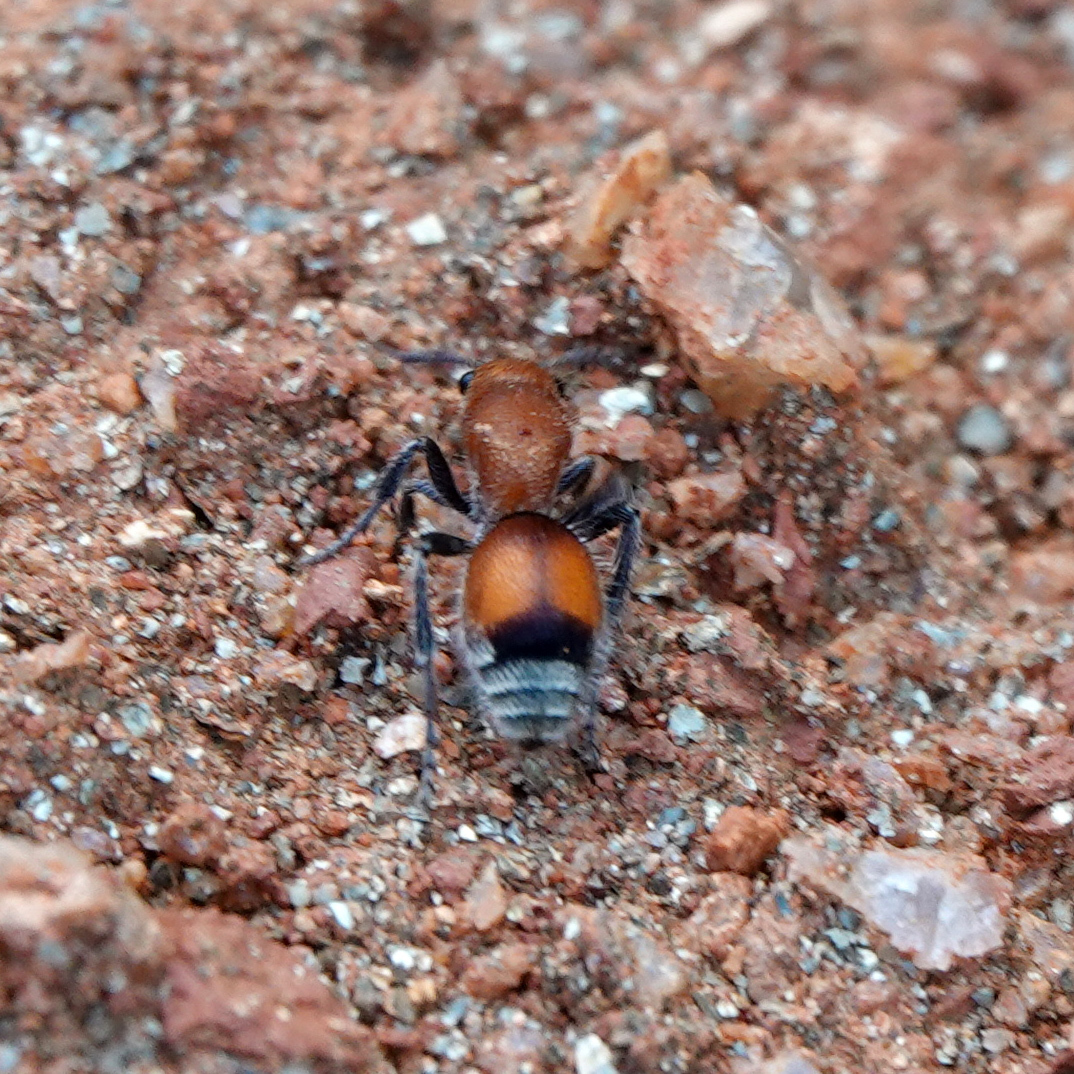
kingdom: Animalia
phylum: Arthropoda
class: Insecta
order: Hymenoptera
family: Mutillidae
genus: Dasymutilla
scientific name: Dasymutilla
